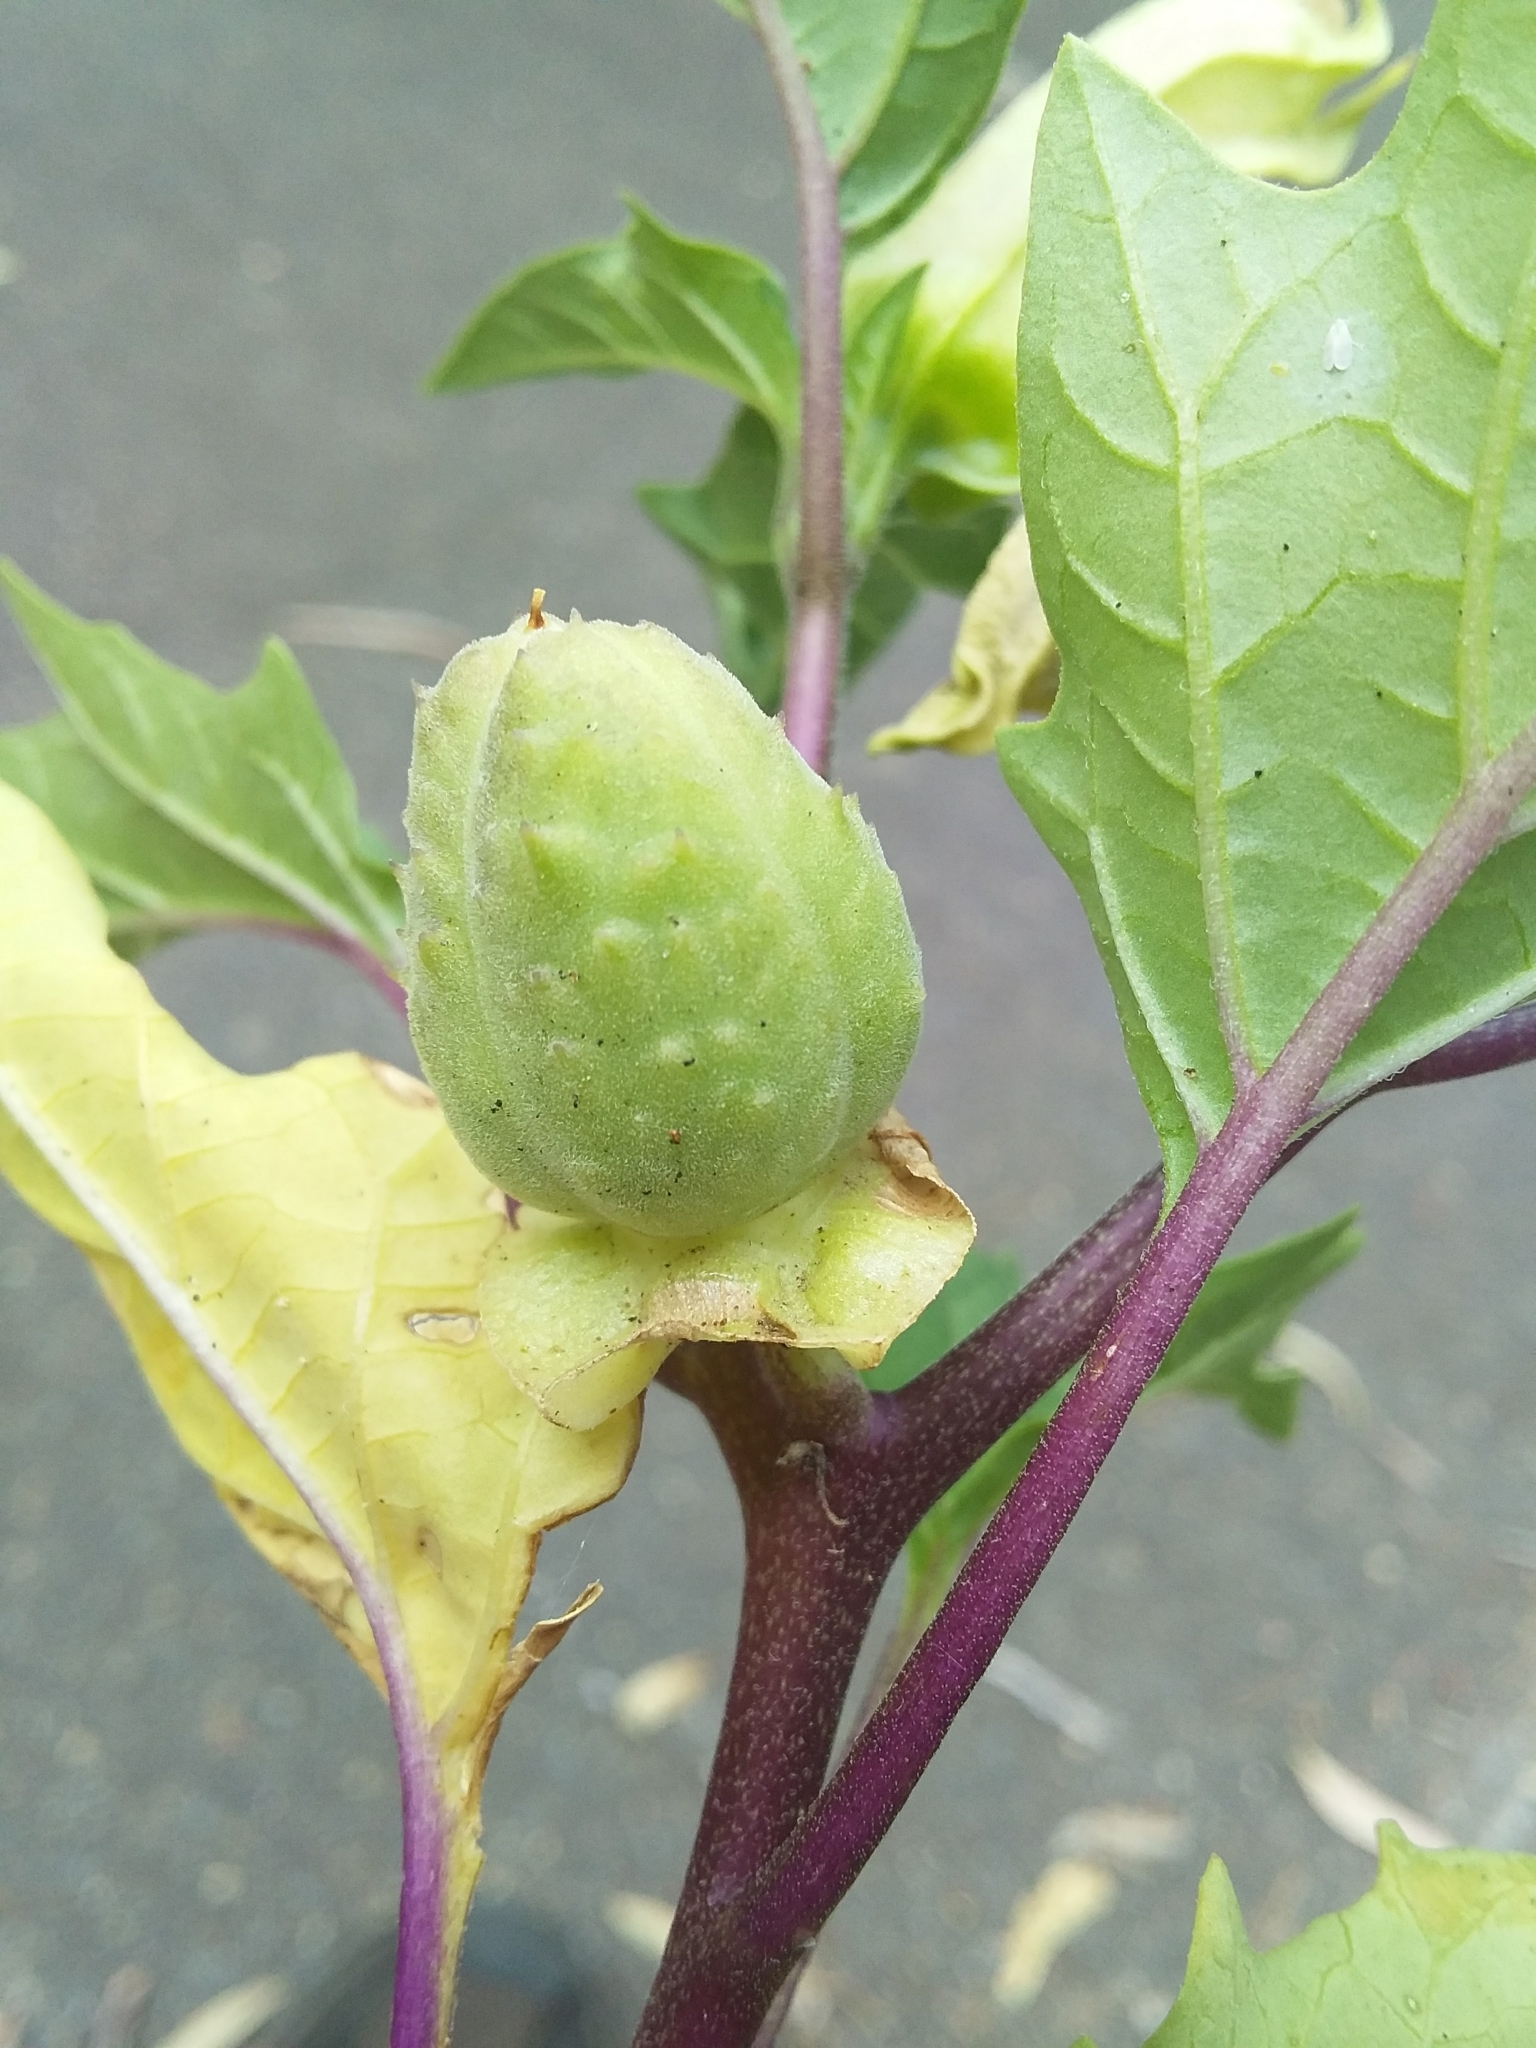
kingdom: Plantae
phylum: Tracheophyta
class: Magnoliopsida
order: Solanales
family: Solanaceae
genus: Datura
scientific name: Datura stramonium
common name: Thorn-apple
